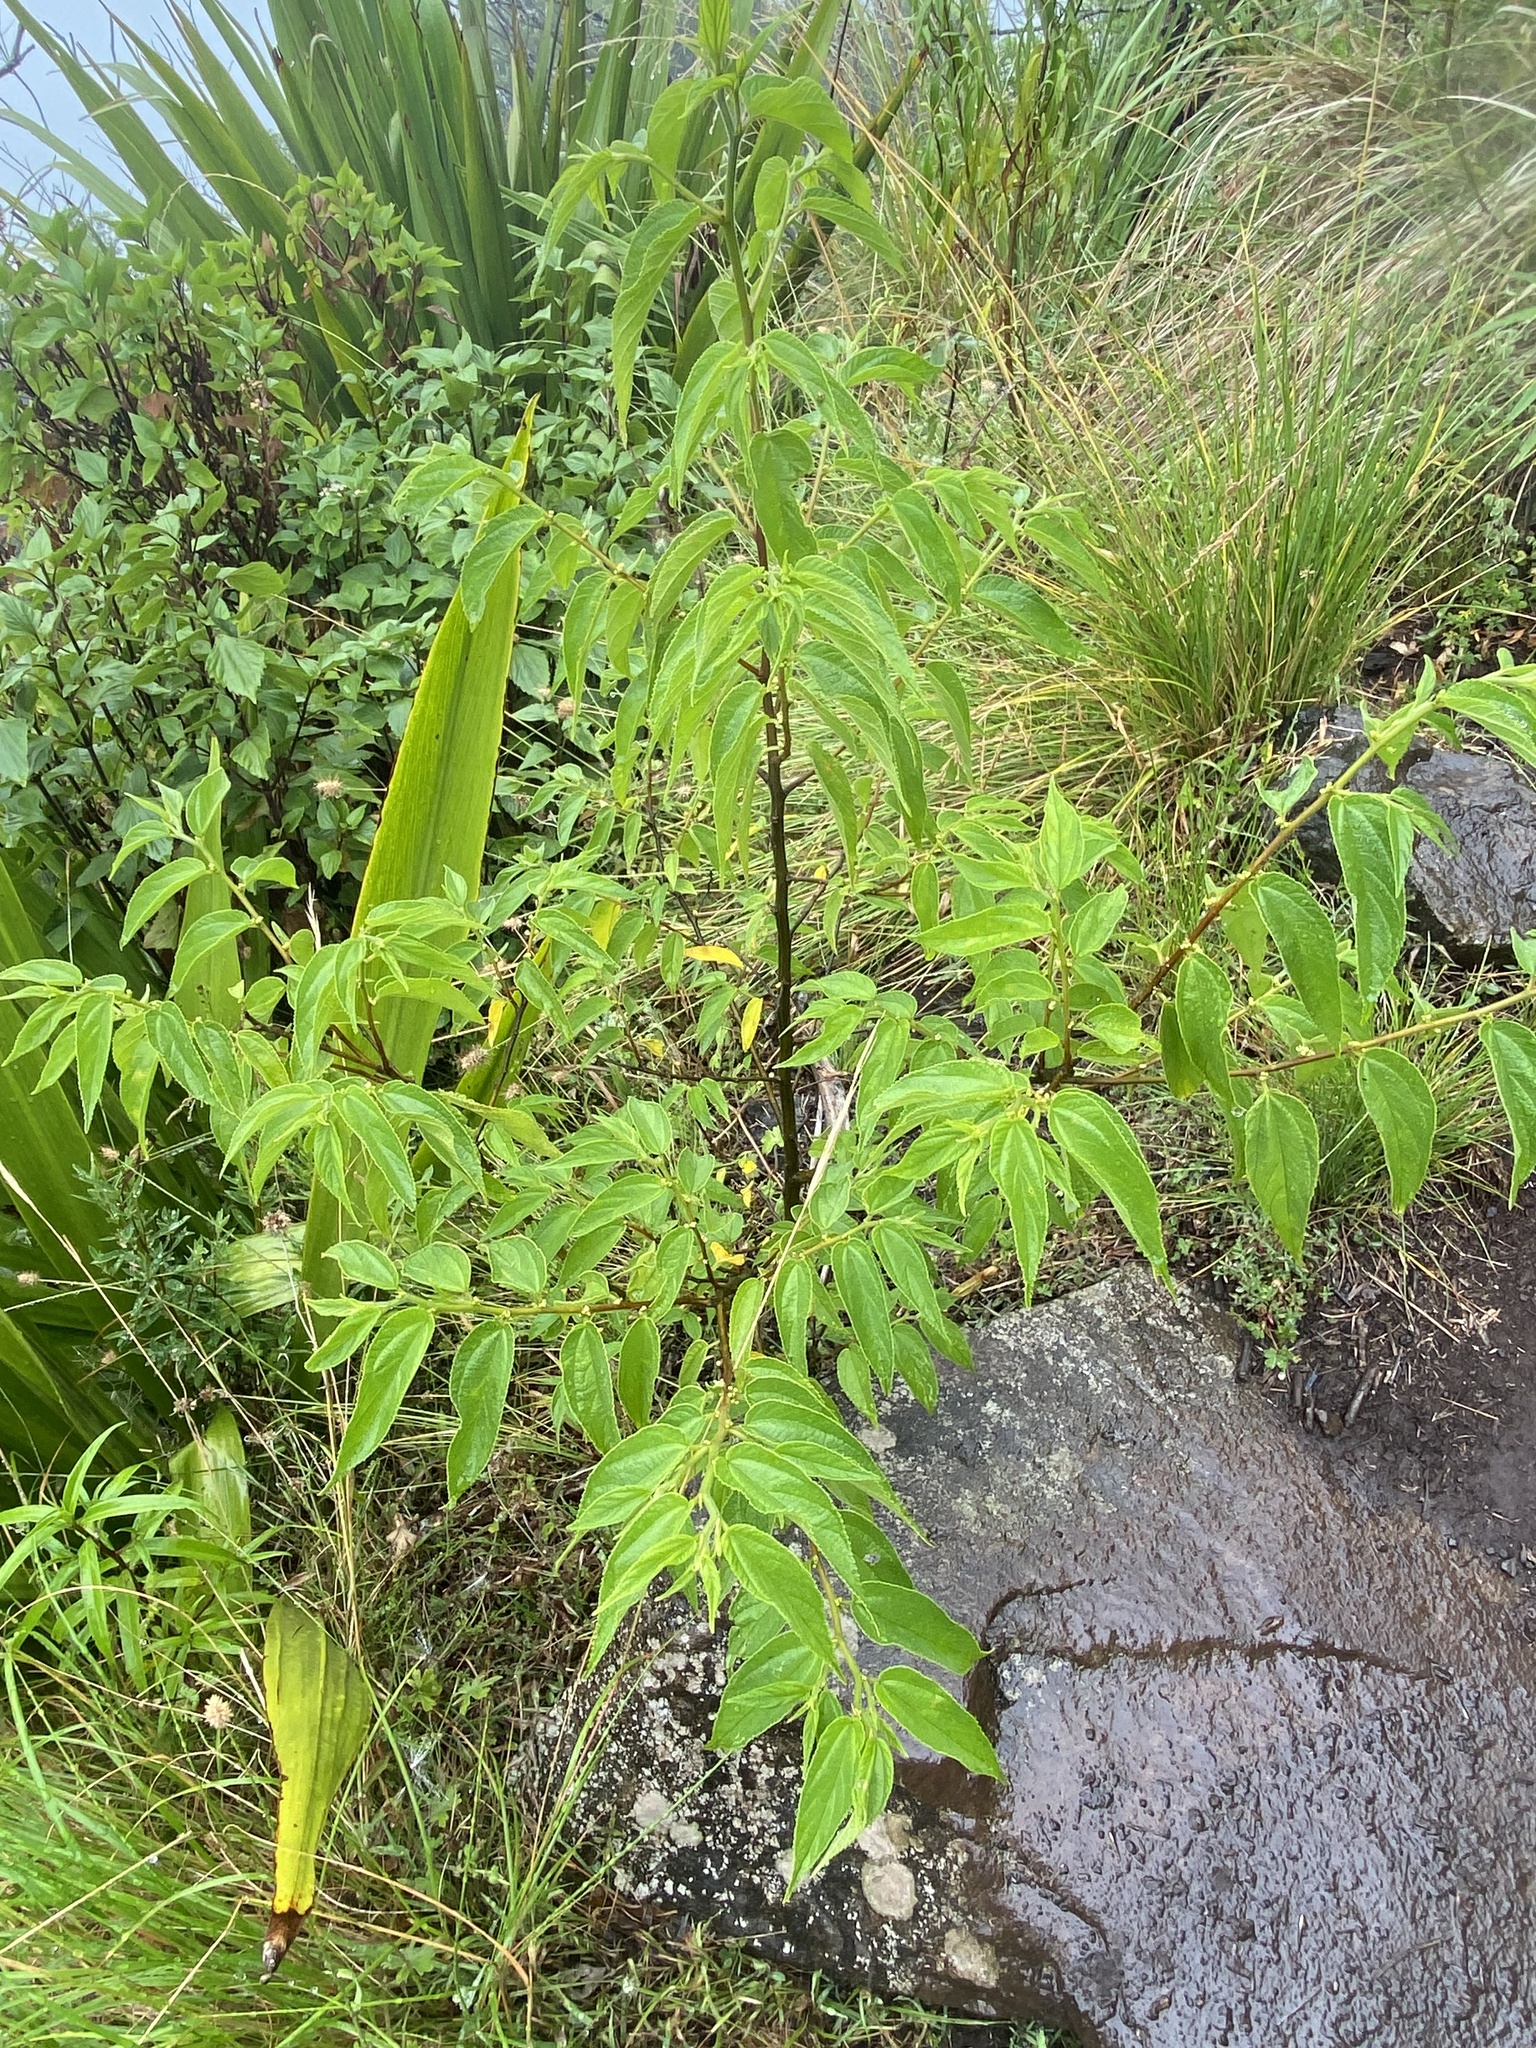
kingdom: Plantae
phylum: Tracheophyta
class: Magnoliopsida
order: Rosales
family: Cannabaceae
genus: Trema
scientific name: Trema tomentosum
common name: Peach-leaf-poisonbush
